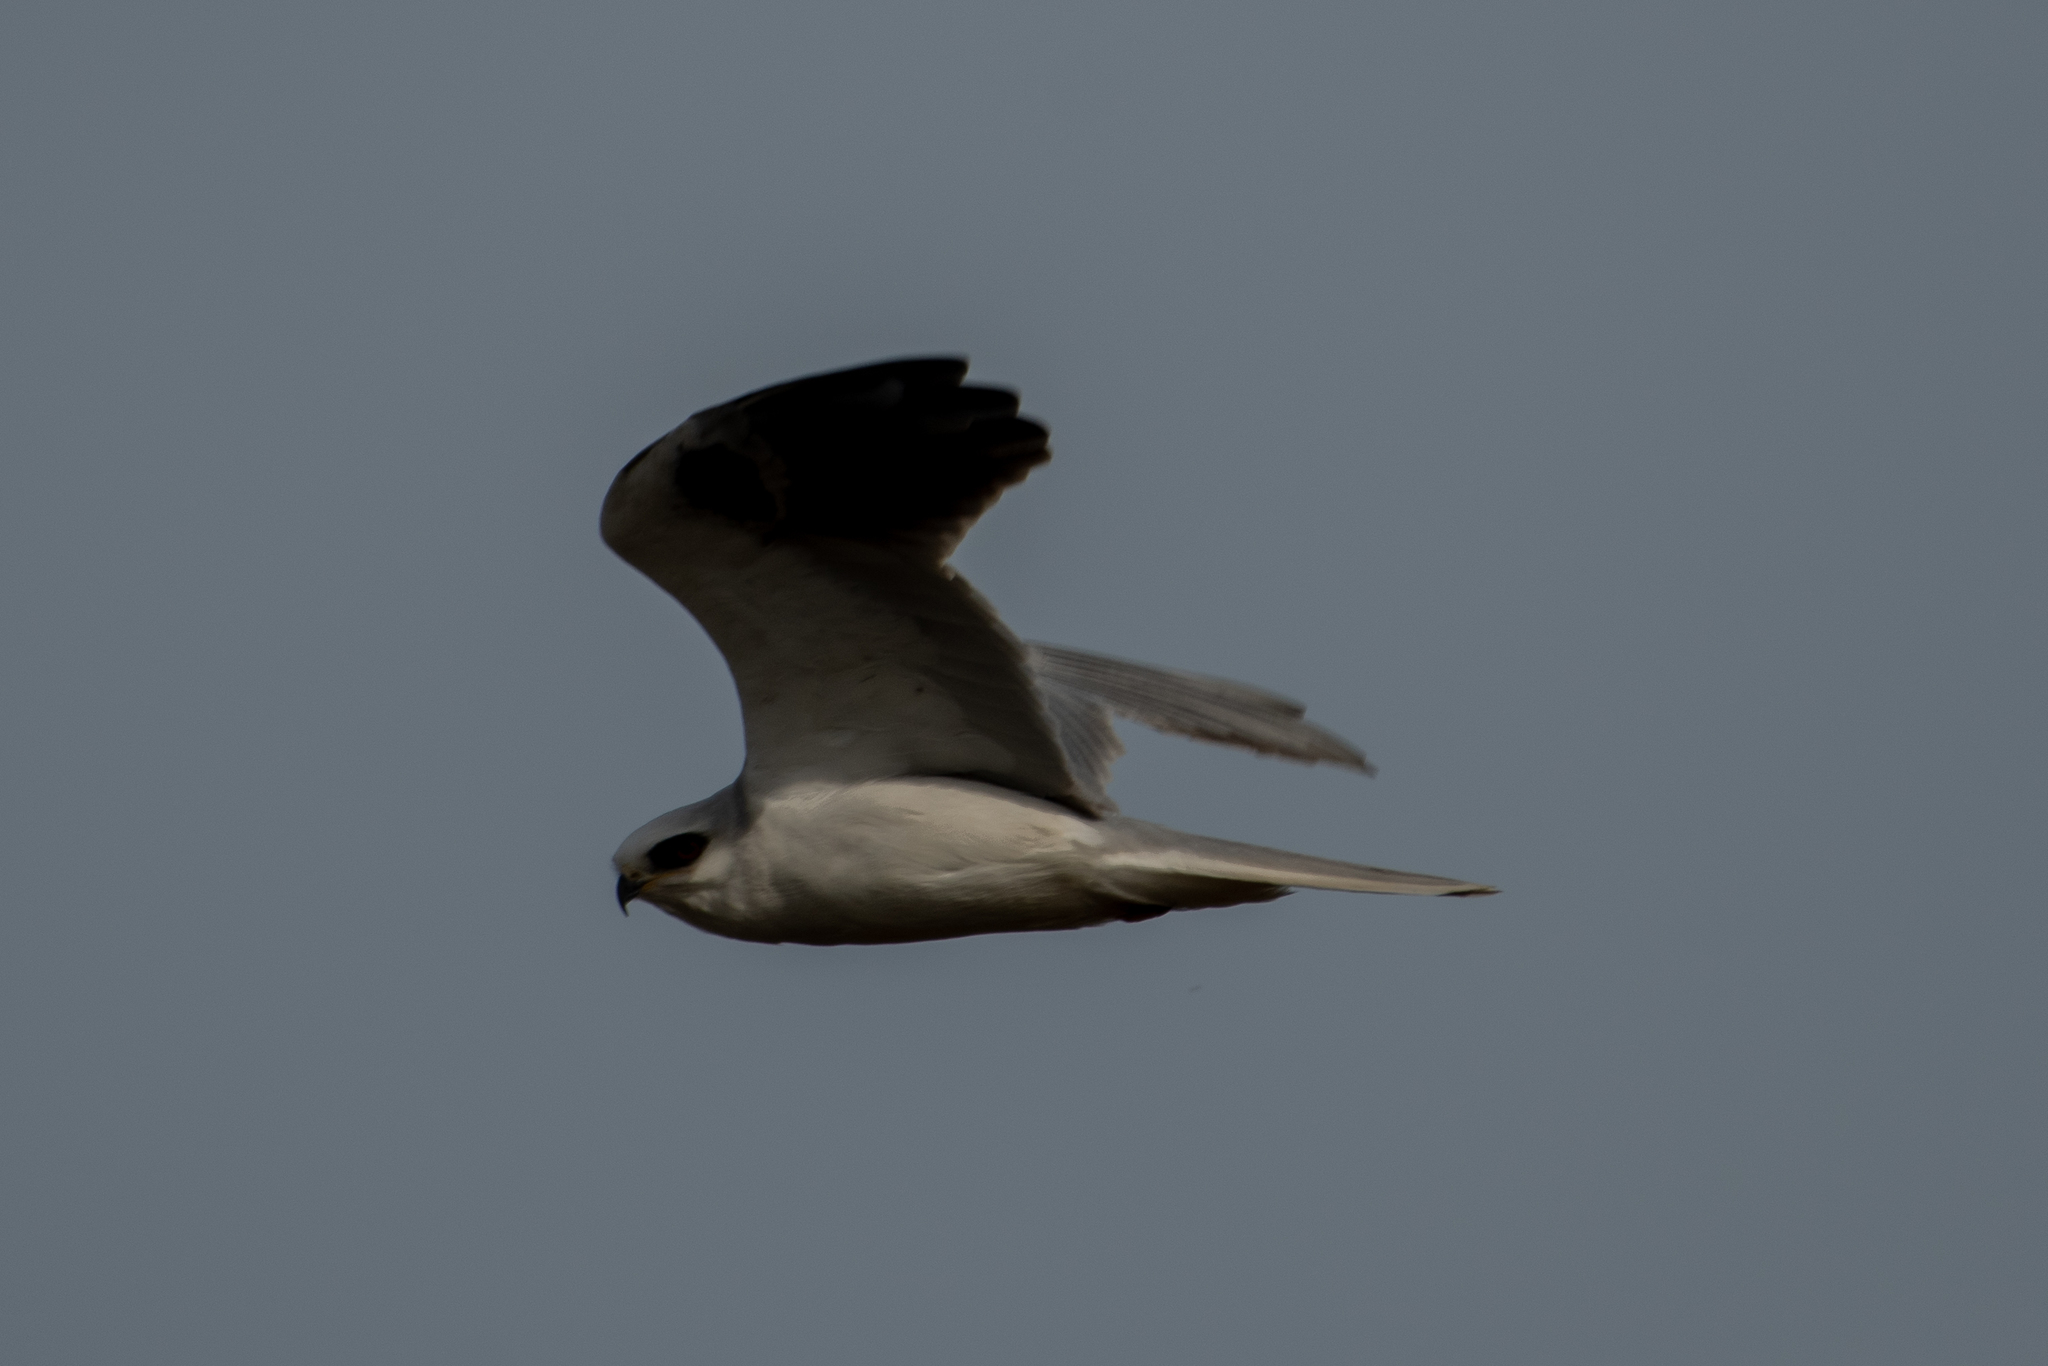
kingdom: Animalia
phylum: Chordata
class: Aves
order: Accipitriformes
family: Accipitridae
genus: Elanus
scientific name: Elanus leucurus
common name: White-tailed kite
